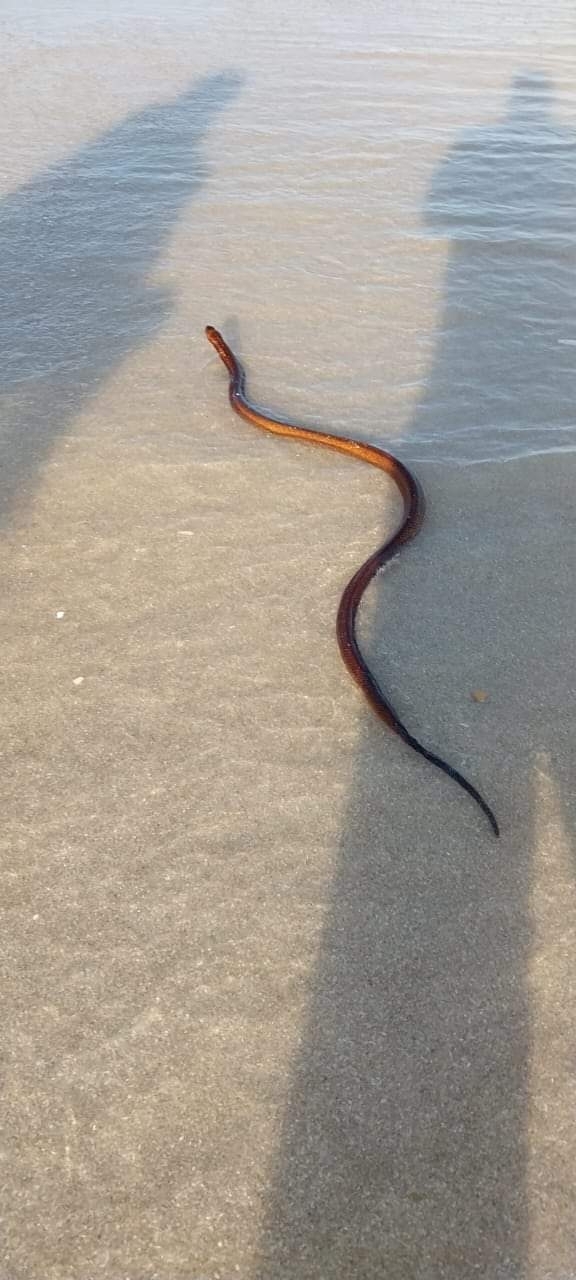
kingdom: Animalia
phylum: Chordata
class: Squamata
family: Elapidae
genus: Naja
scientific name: Naja nivea
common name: Cape cobra
